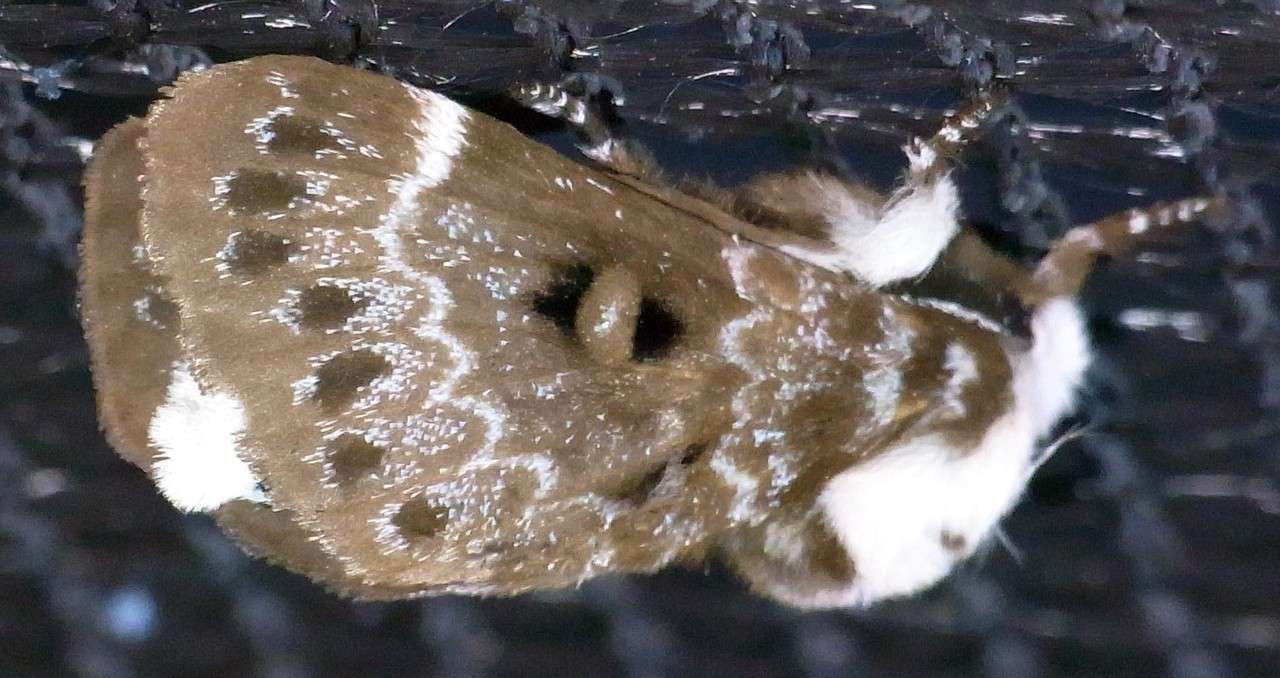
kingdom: Animalia
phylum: Arthropoda
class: Insecta
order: Lepidoptera
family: Lasiocampidae
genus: Genduara
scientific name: Genduara punctigera
